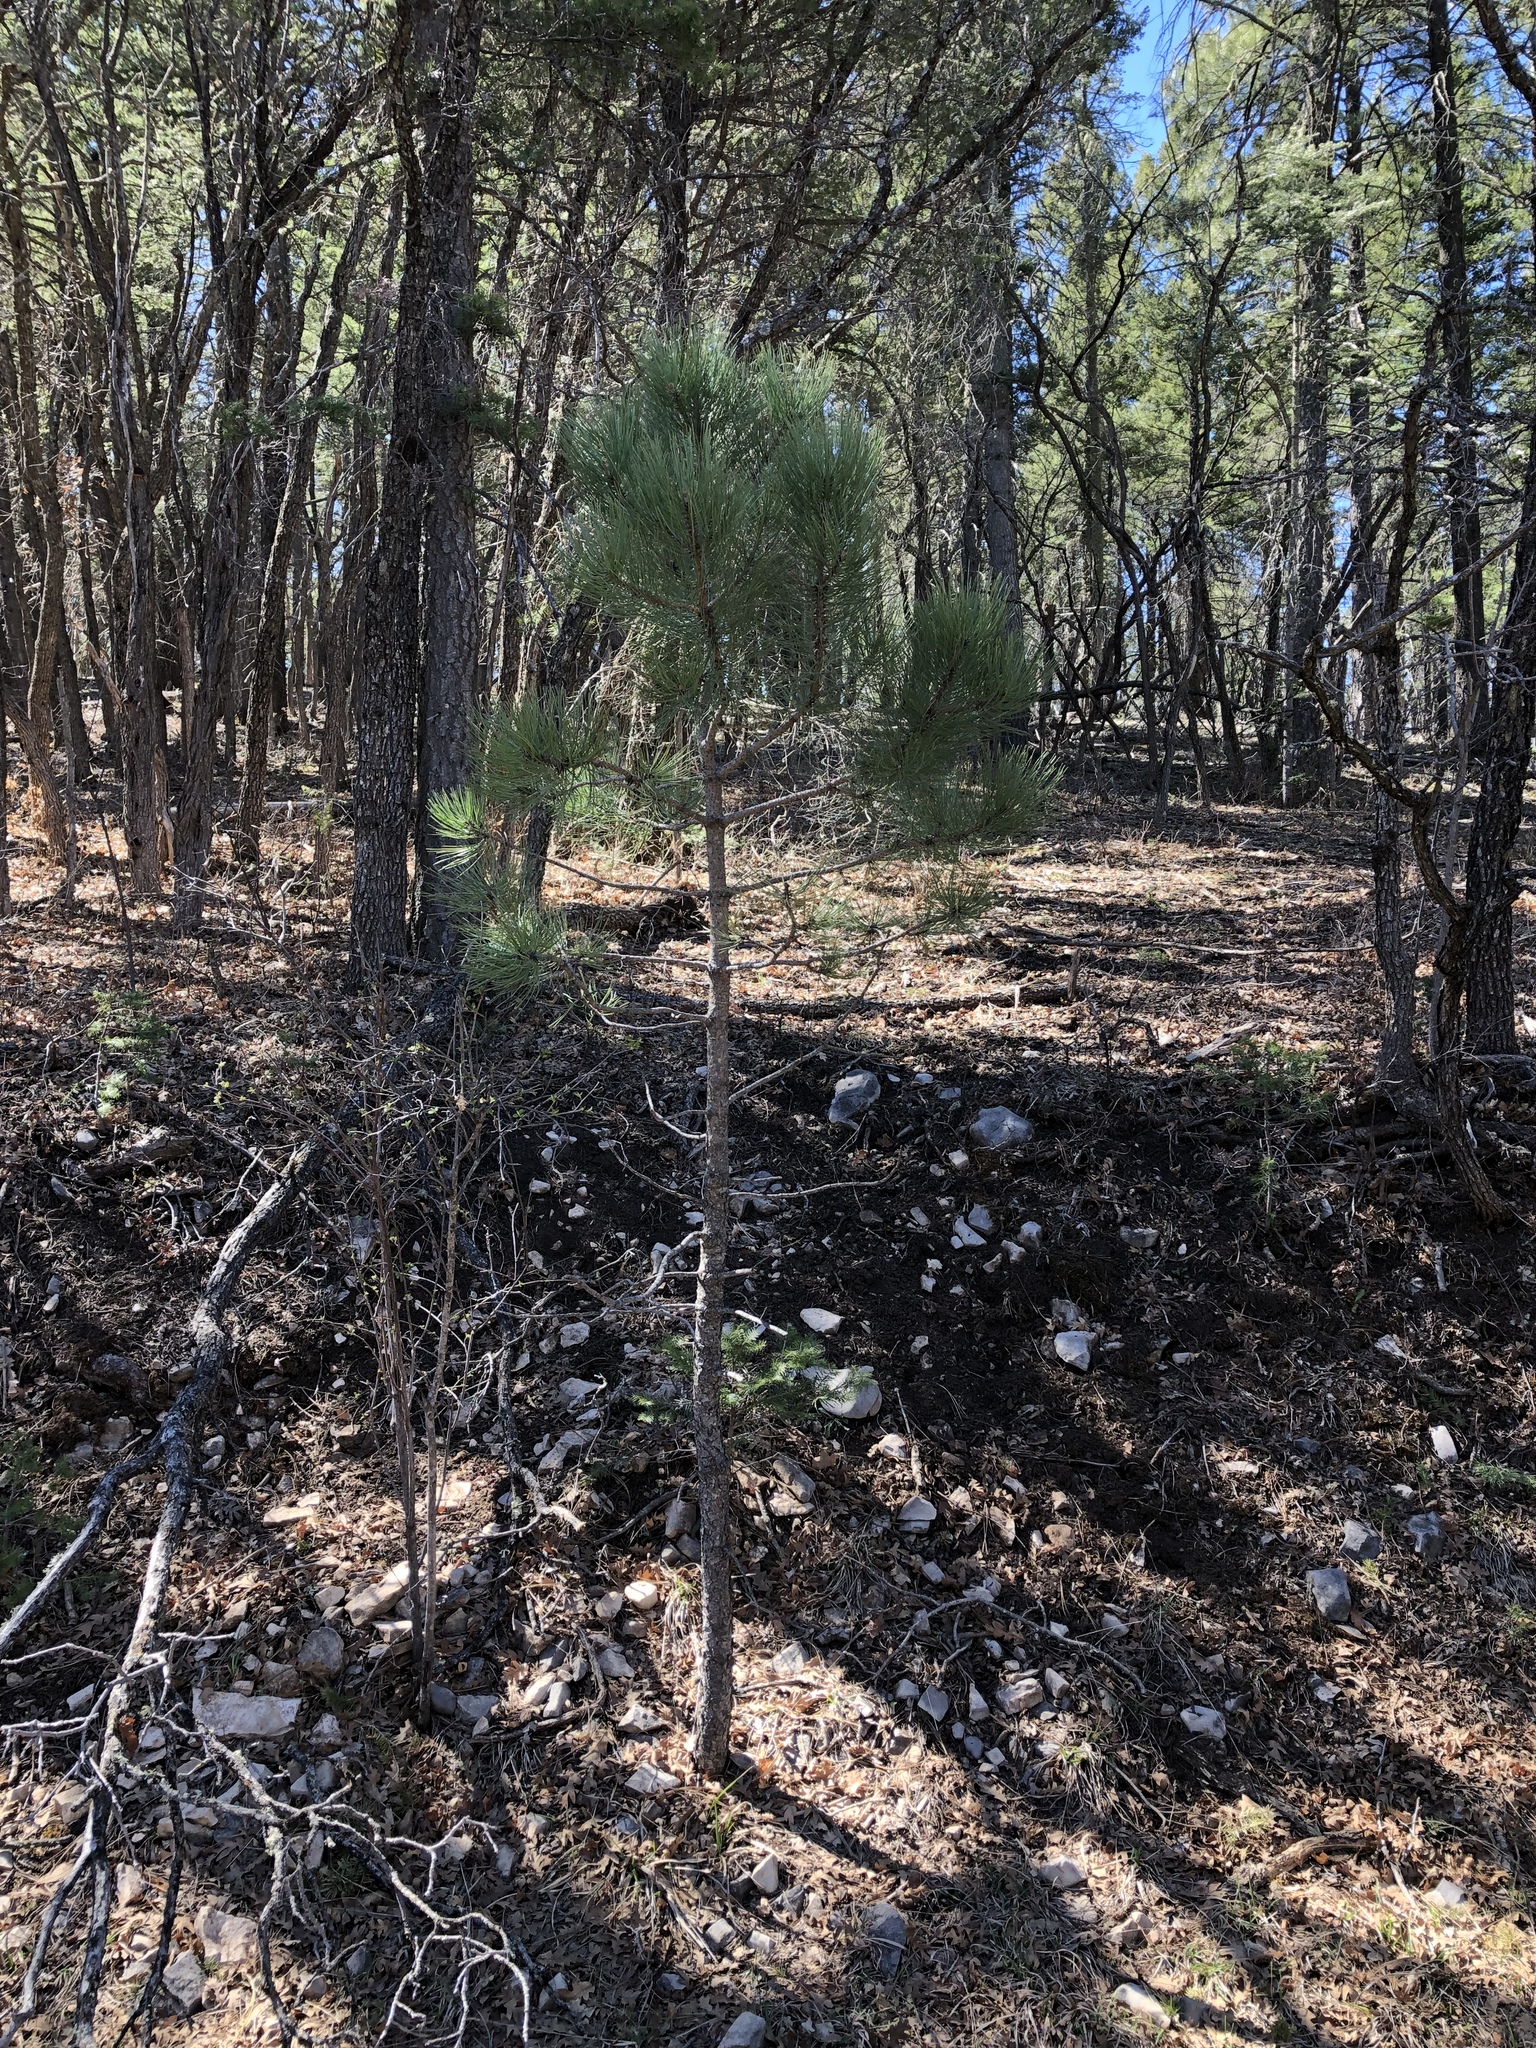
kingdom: Plantae
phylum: Tracheophyta
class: Pinopsida
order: Pinales
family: Pinaceae
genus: Pinus
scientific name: Pinus ponderosa
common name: Western yellow-pine
